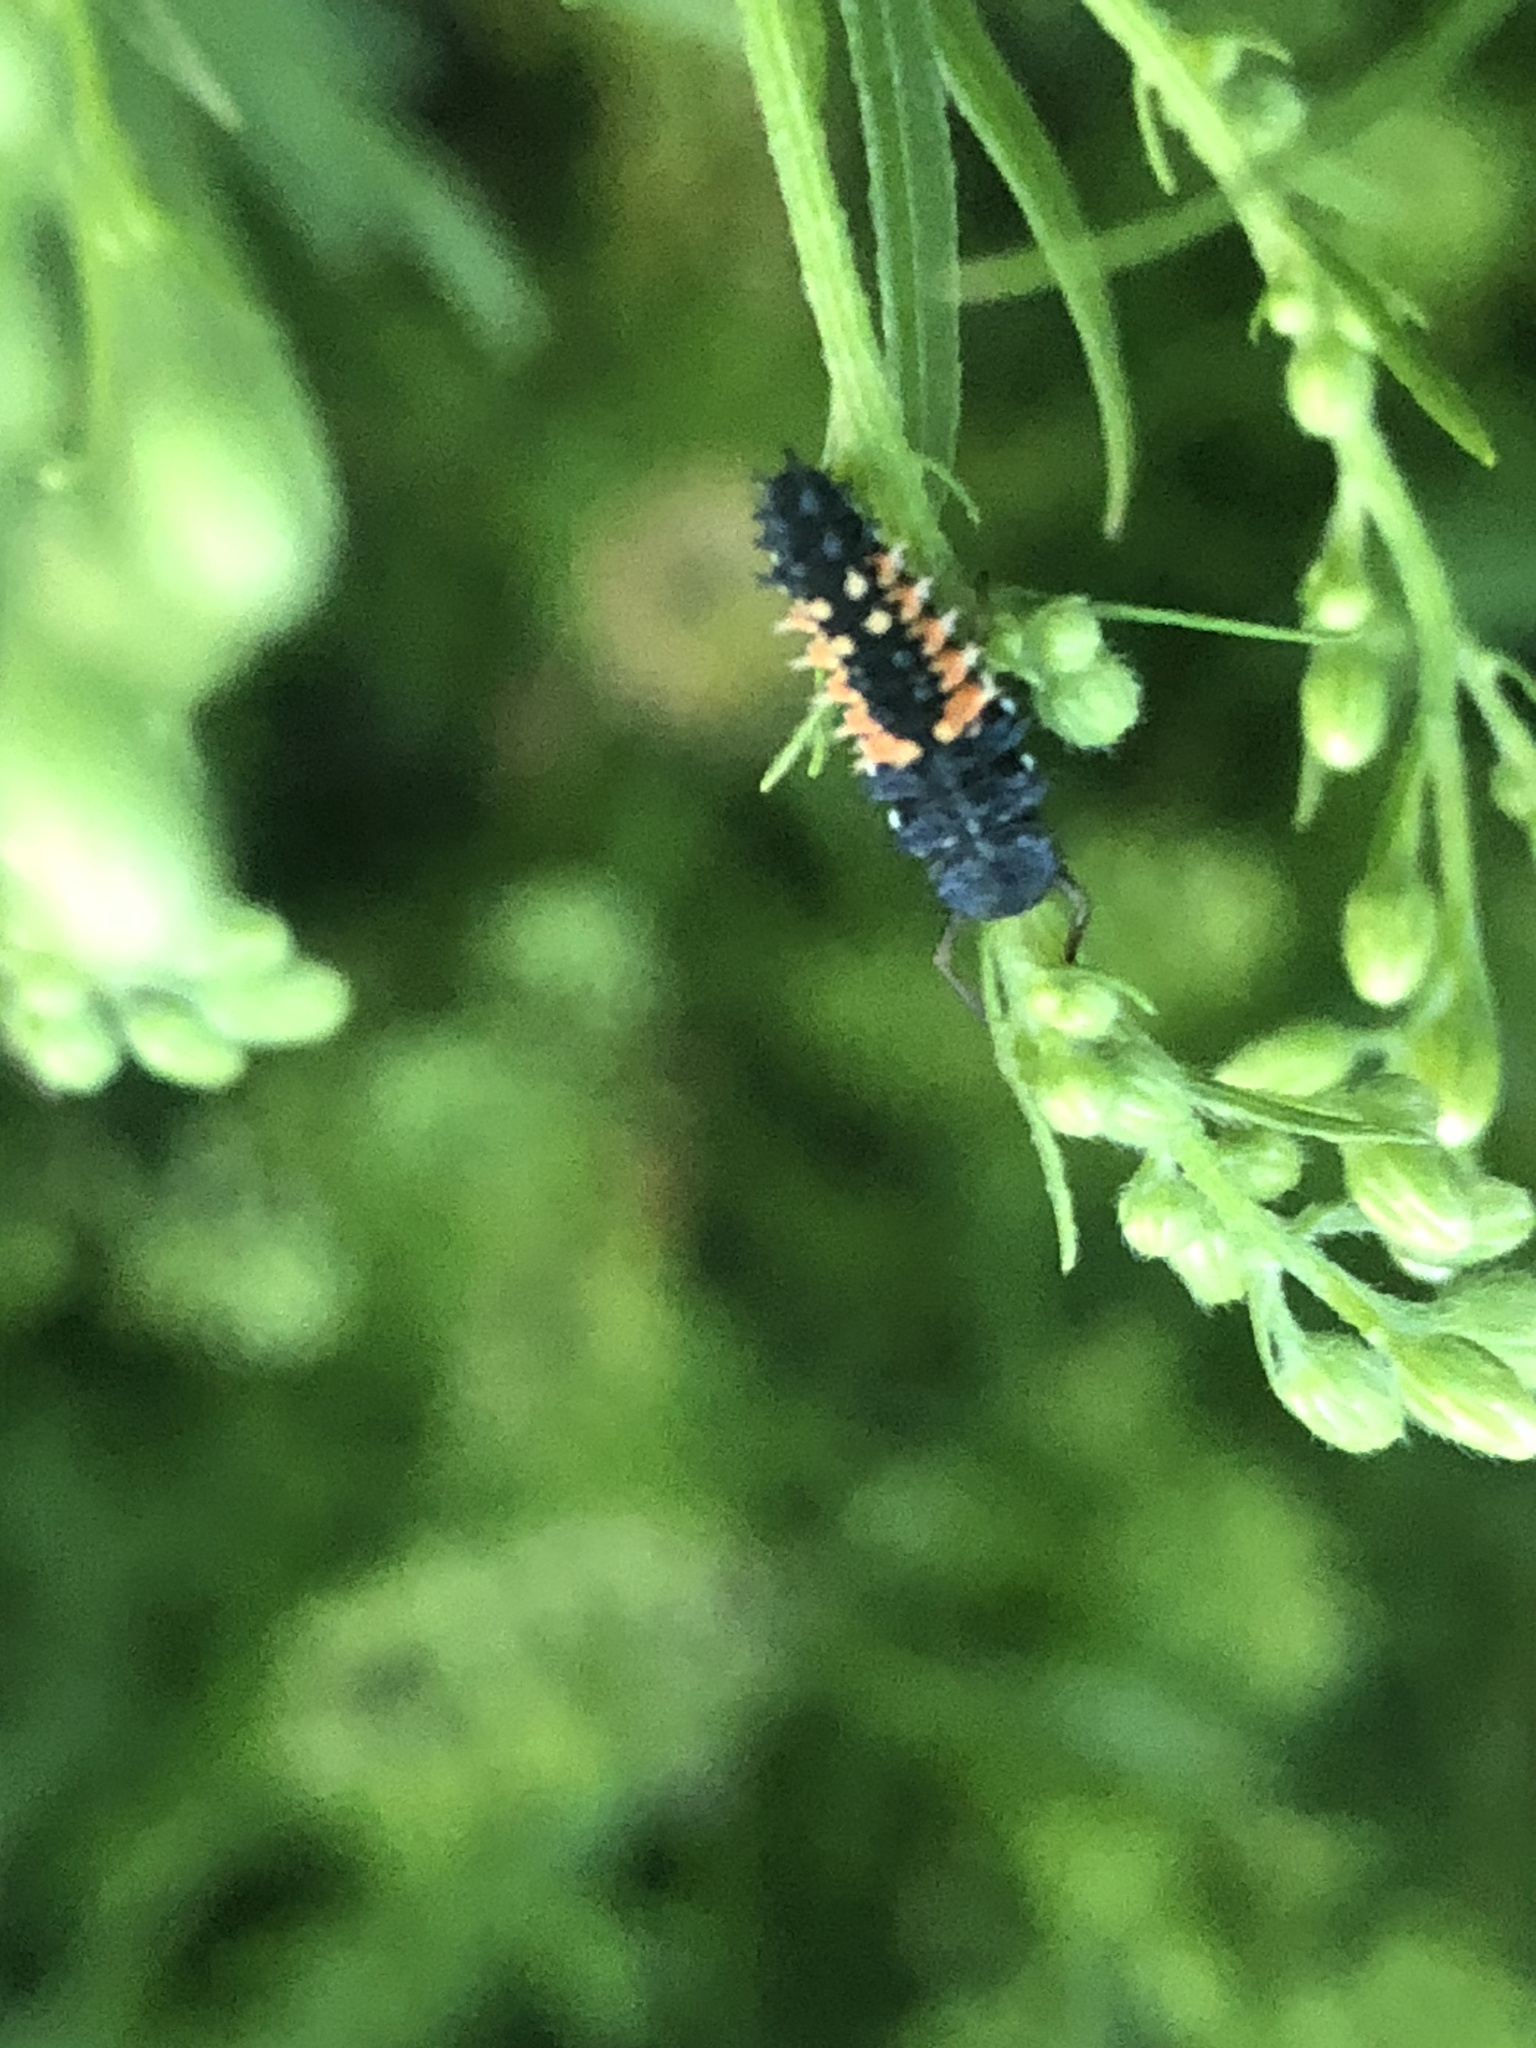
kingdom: Animalia
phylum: Arthropoda
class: Insecta
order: Coleoptera
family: Coccinellidae
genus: Harmonia
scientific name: Harmonia axyridis
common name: Harlequin ladybird
